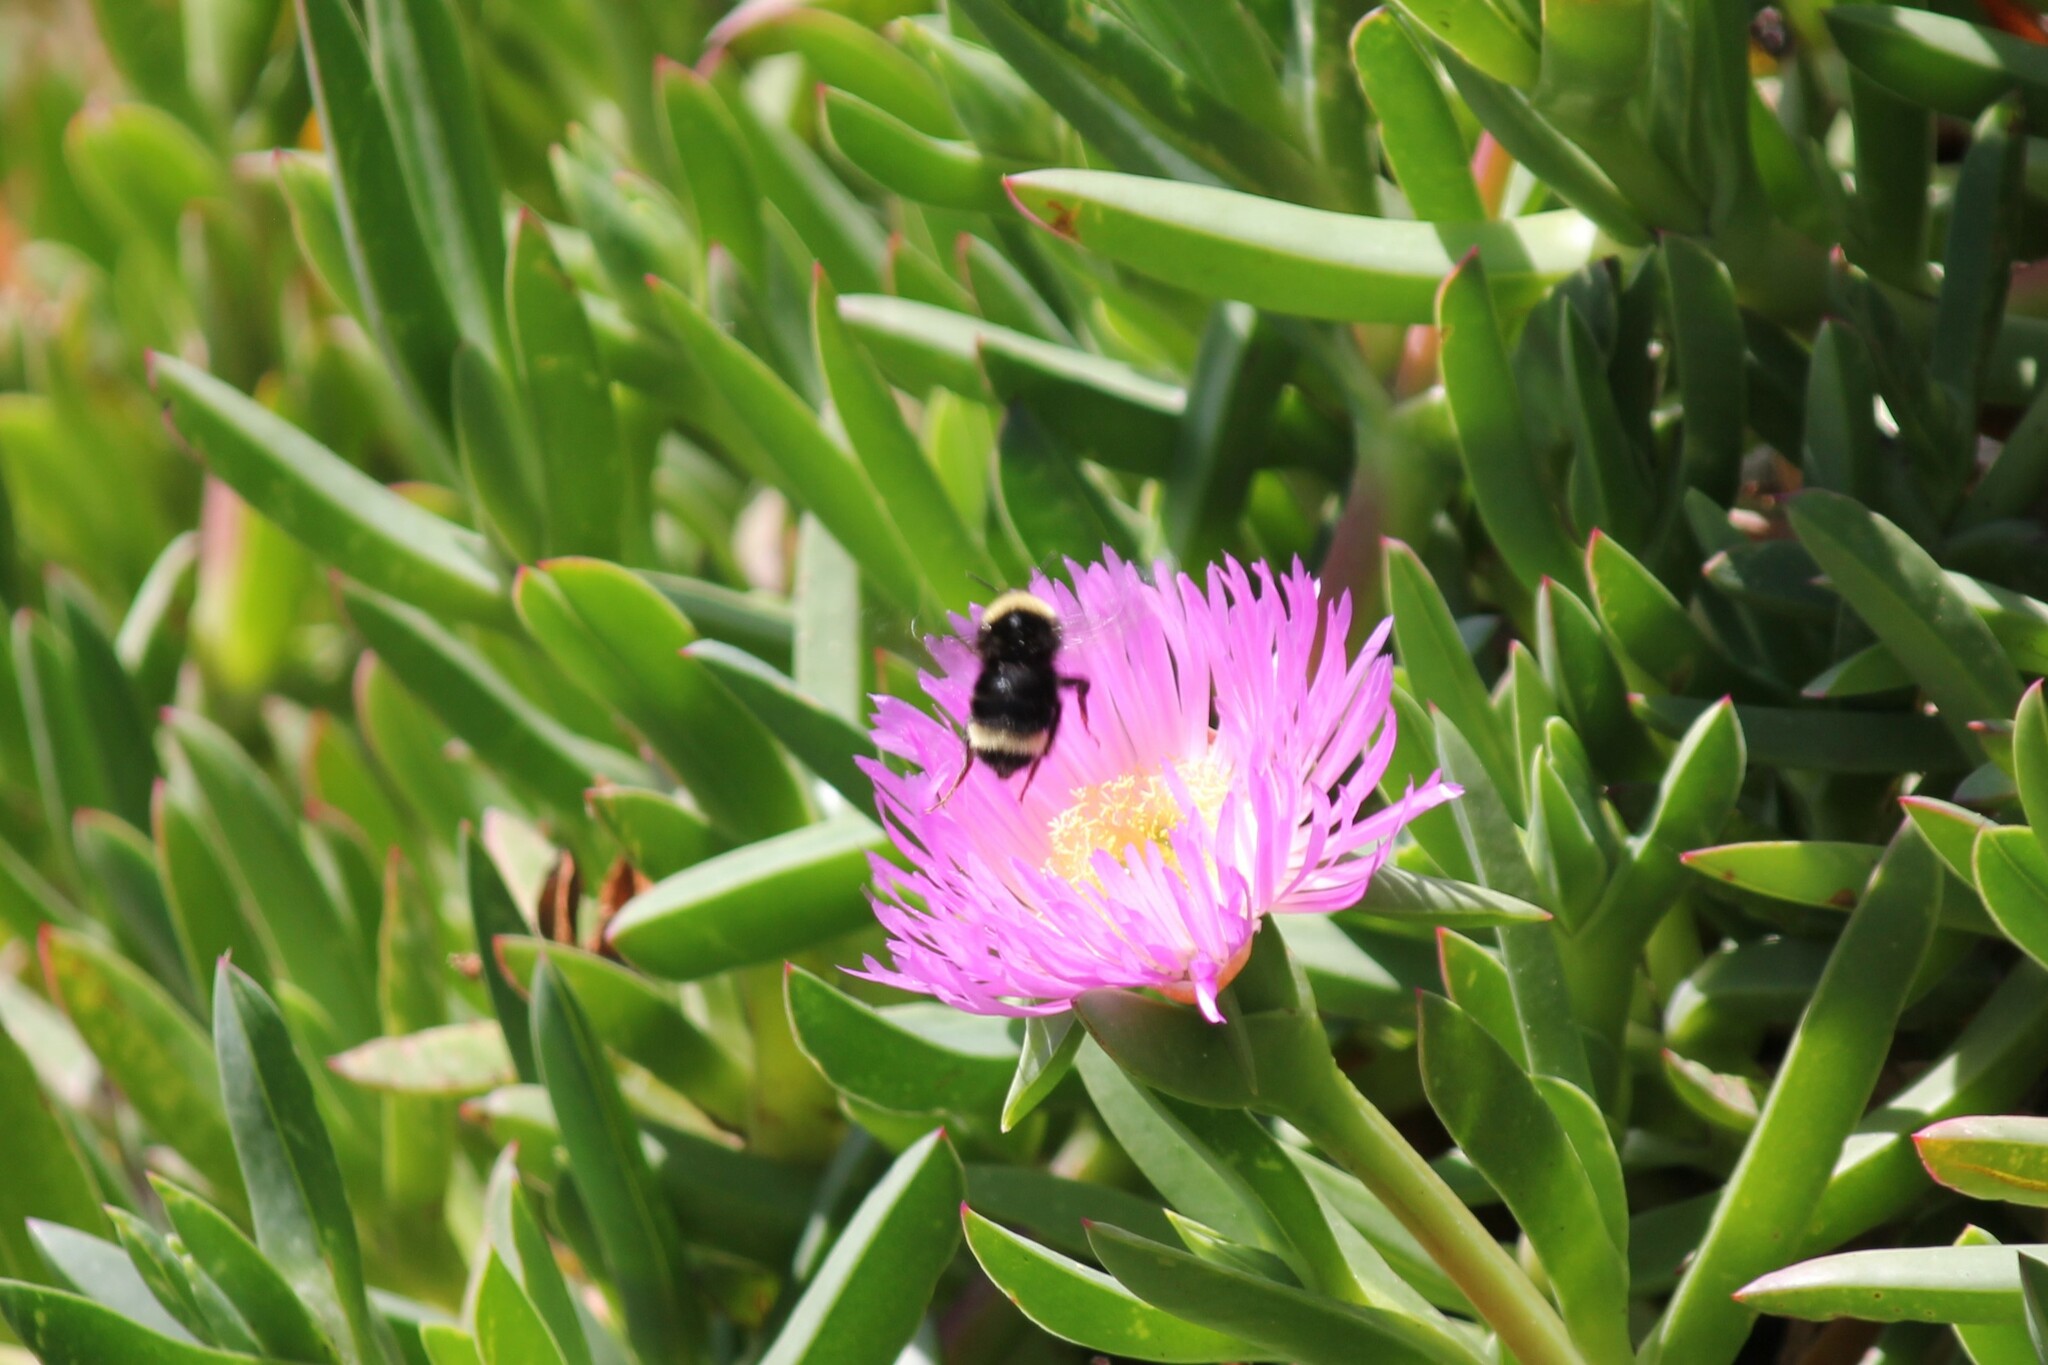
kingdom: Animalia
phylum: Arthropoda
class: Insecta
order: Hymenoptera
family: Apidae
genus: Bombus
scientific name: Bombus californicus
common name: California bumble bee
